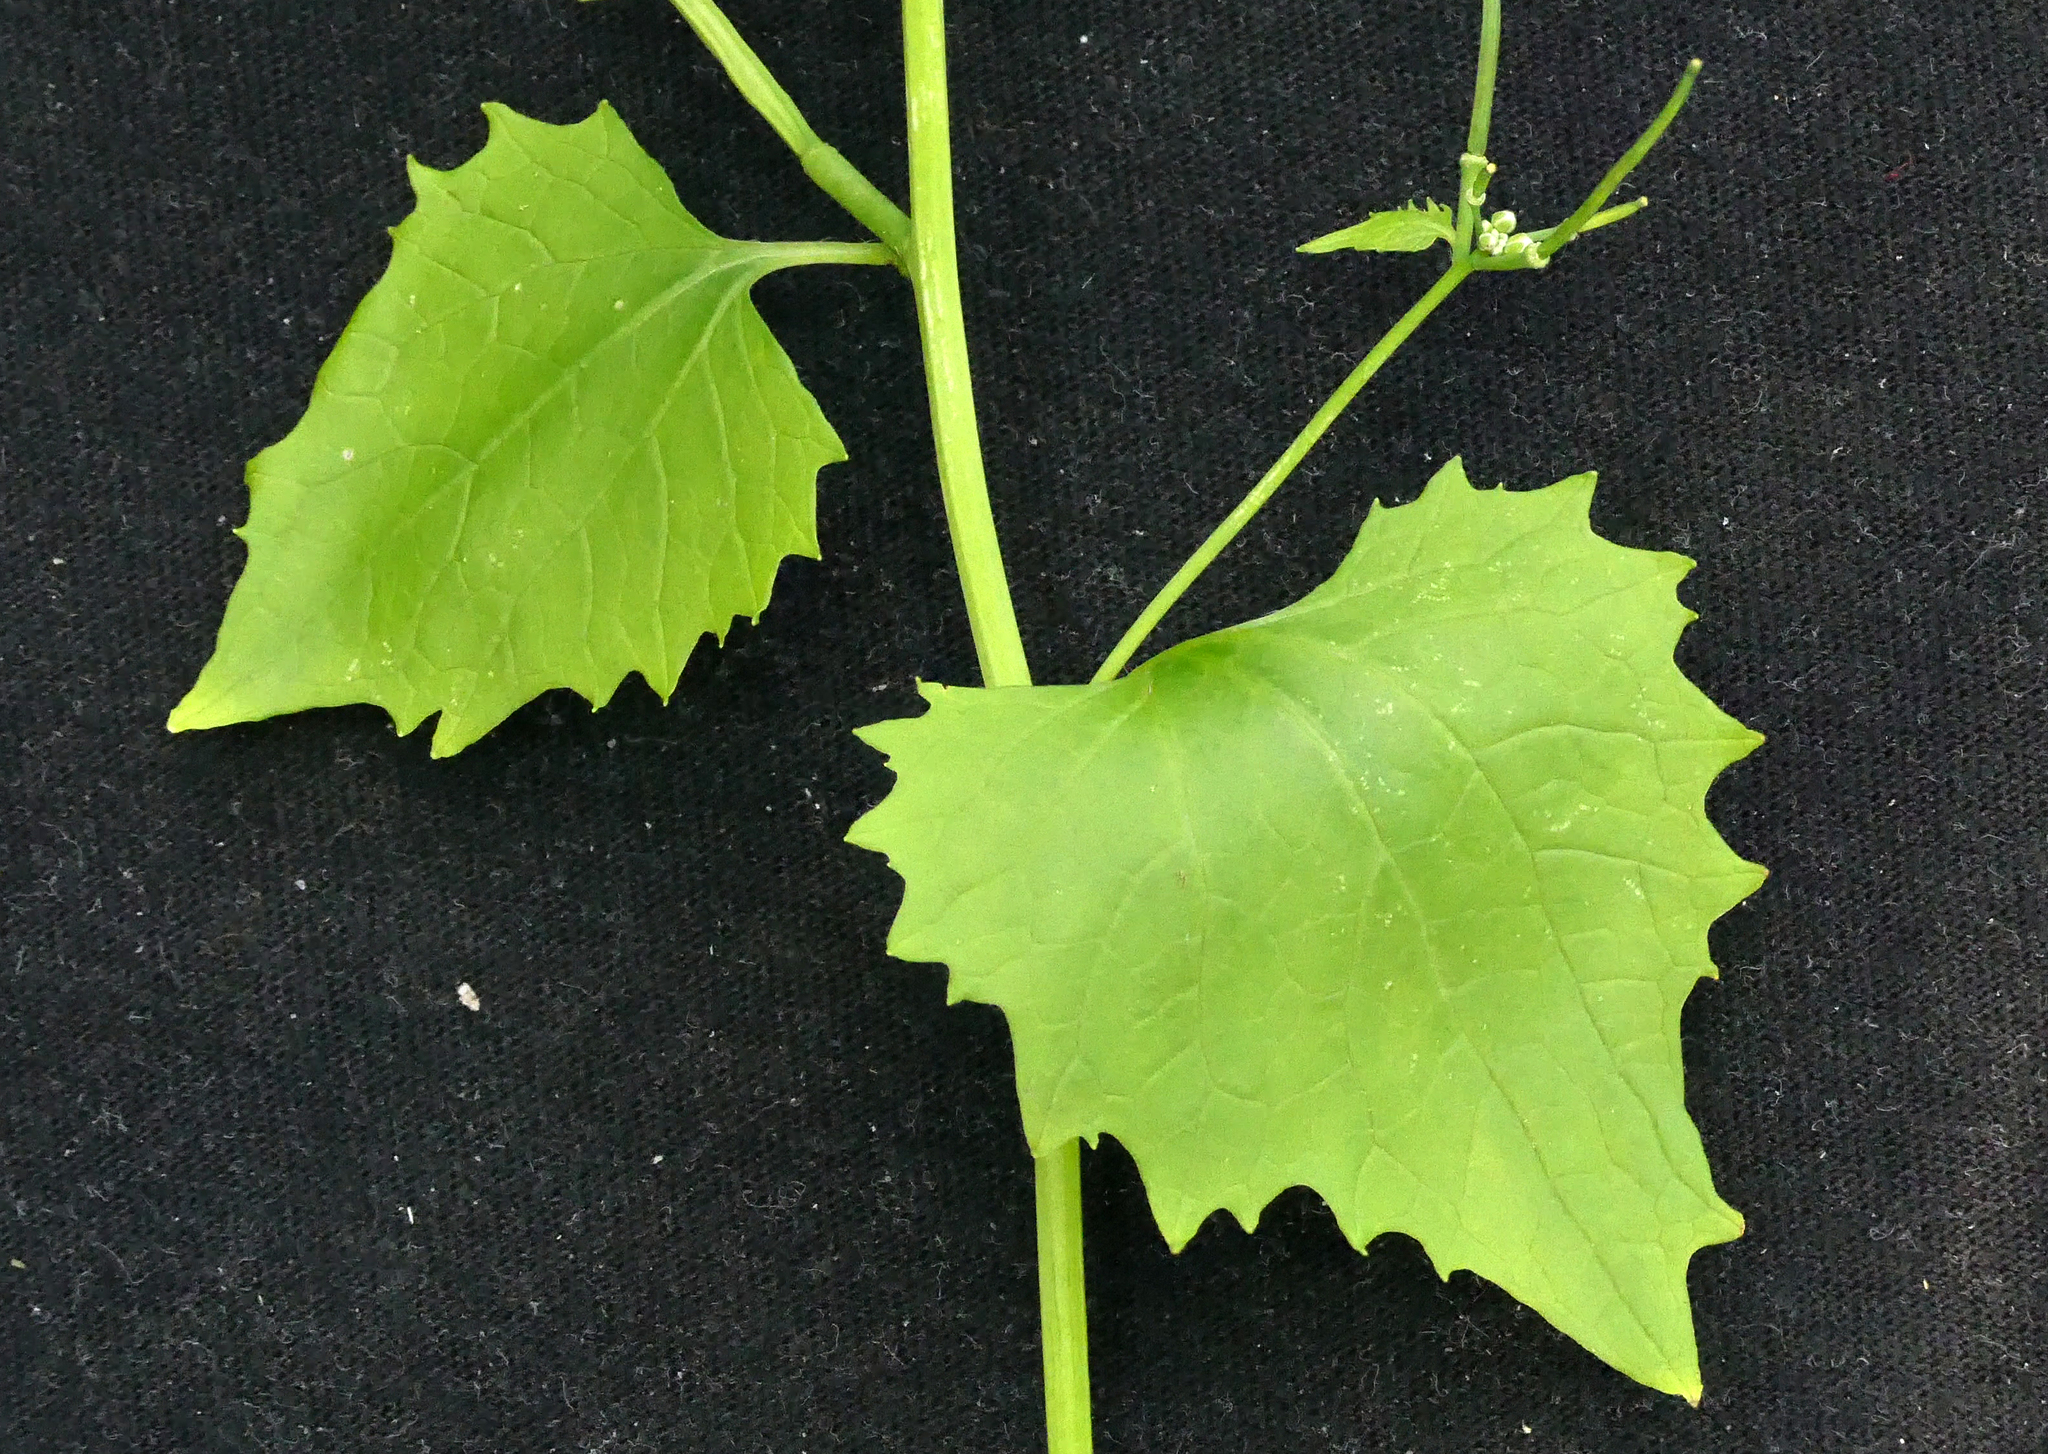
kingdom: Plantae
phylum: Tracheophyta
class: Magnoliopsida
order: Brassicales
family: Brassicaceae
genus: Alliaria
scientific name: Alliaria petiolata
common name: Garlic mustard
